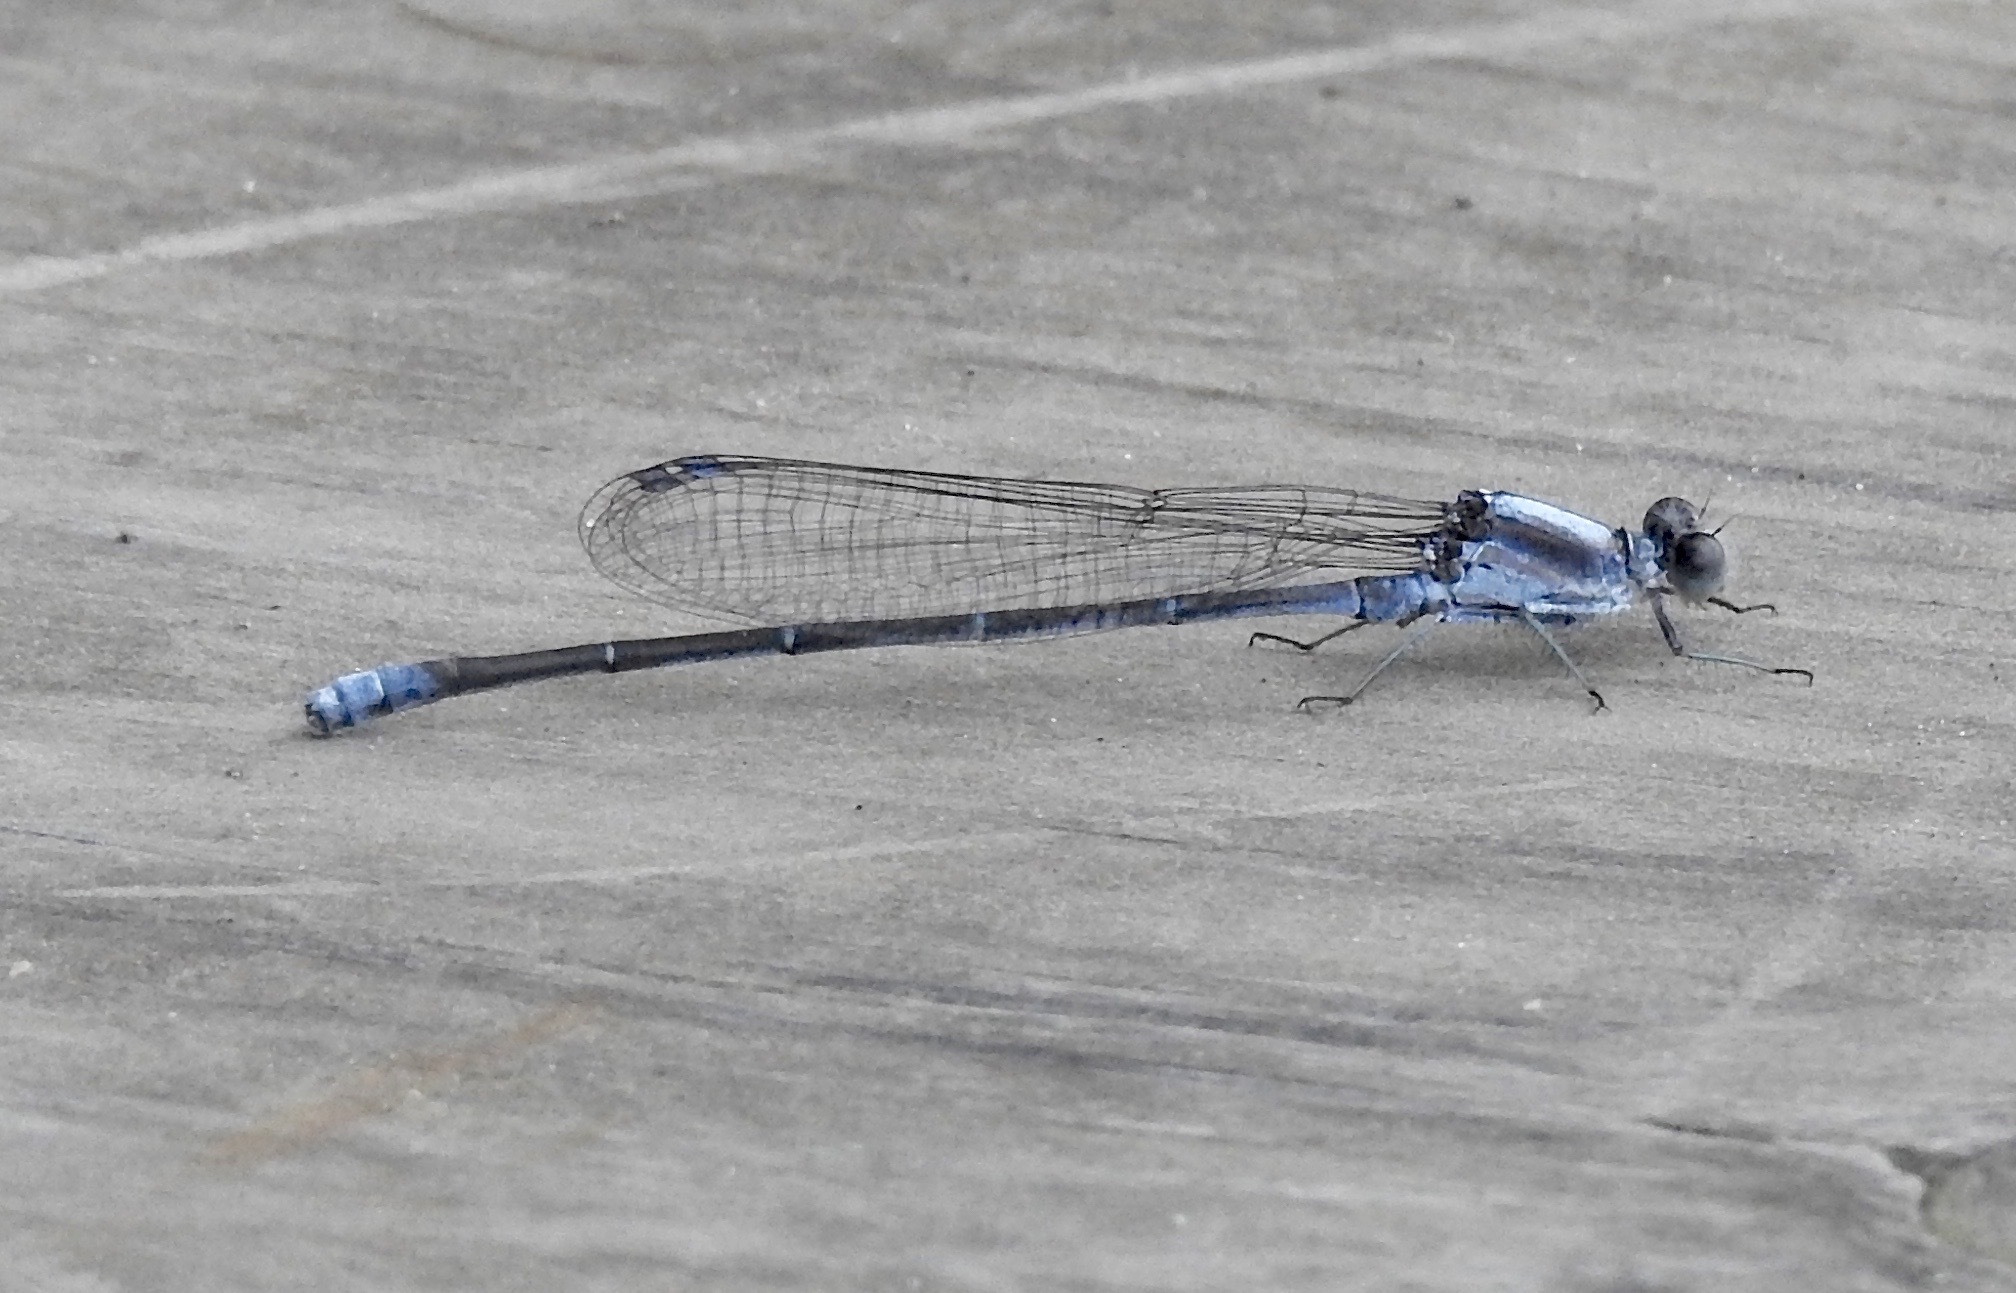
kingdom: Animalia
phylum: Arthropoda
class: Insecta
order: Odonata
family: Coenagrionidae
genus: Argia
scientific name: Argia moesta
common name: Powdered dancer
